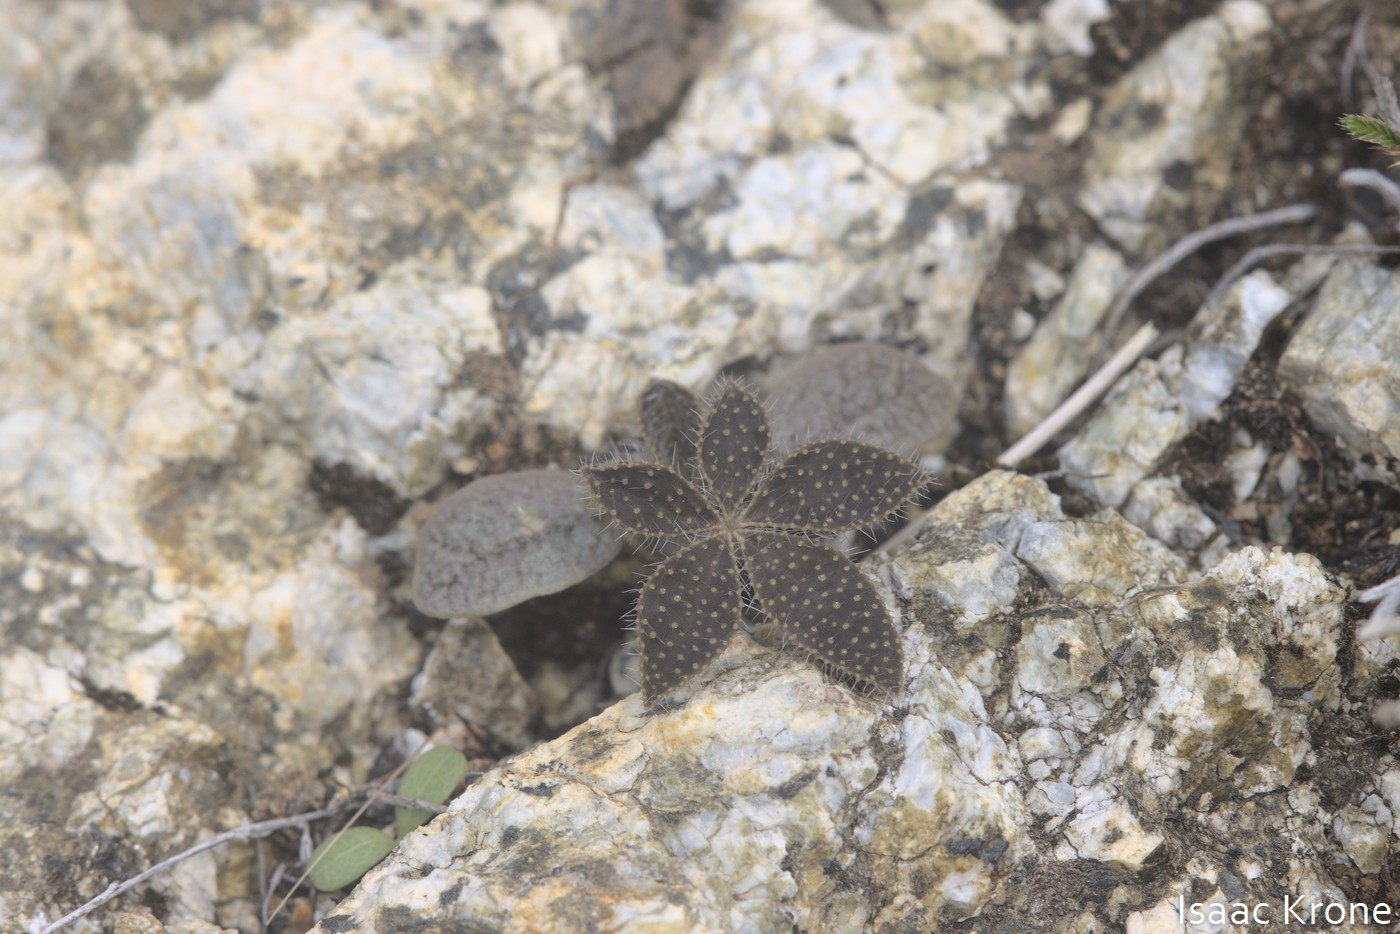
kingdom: Plantae
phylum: Tracheophyta
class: Magnoliopsida
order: Fabales
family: Fabaceae
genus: Lupinus
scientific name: Lupinus hirsutissimus
